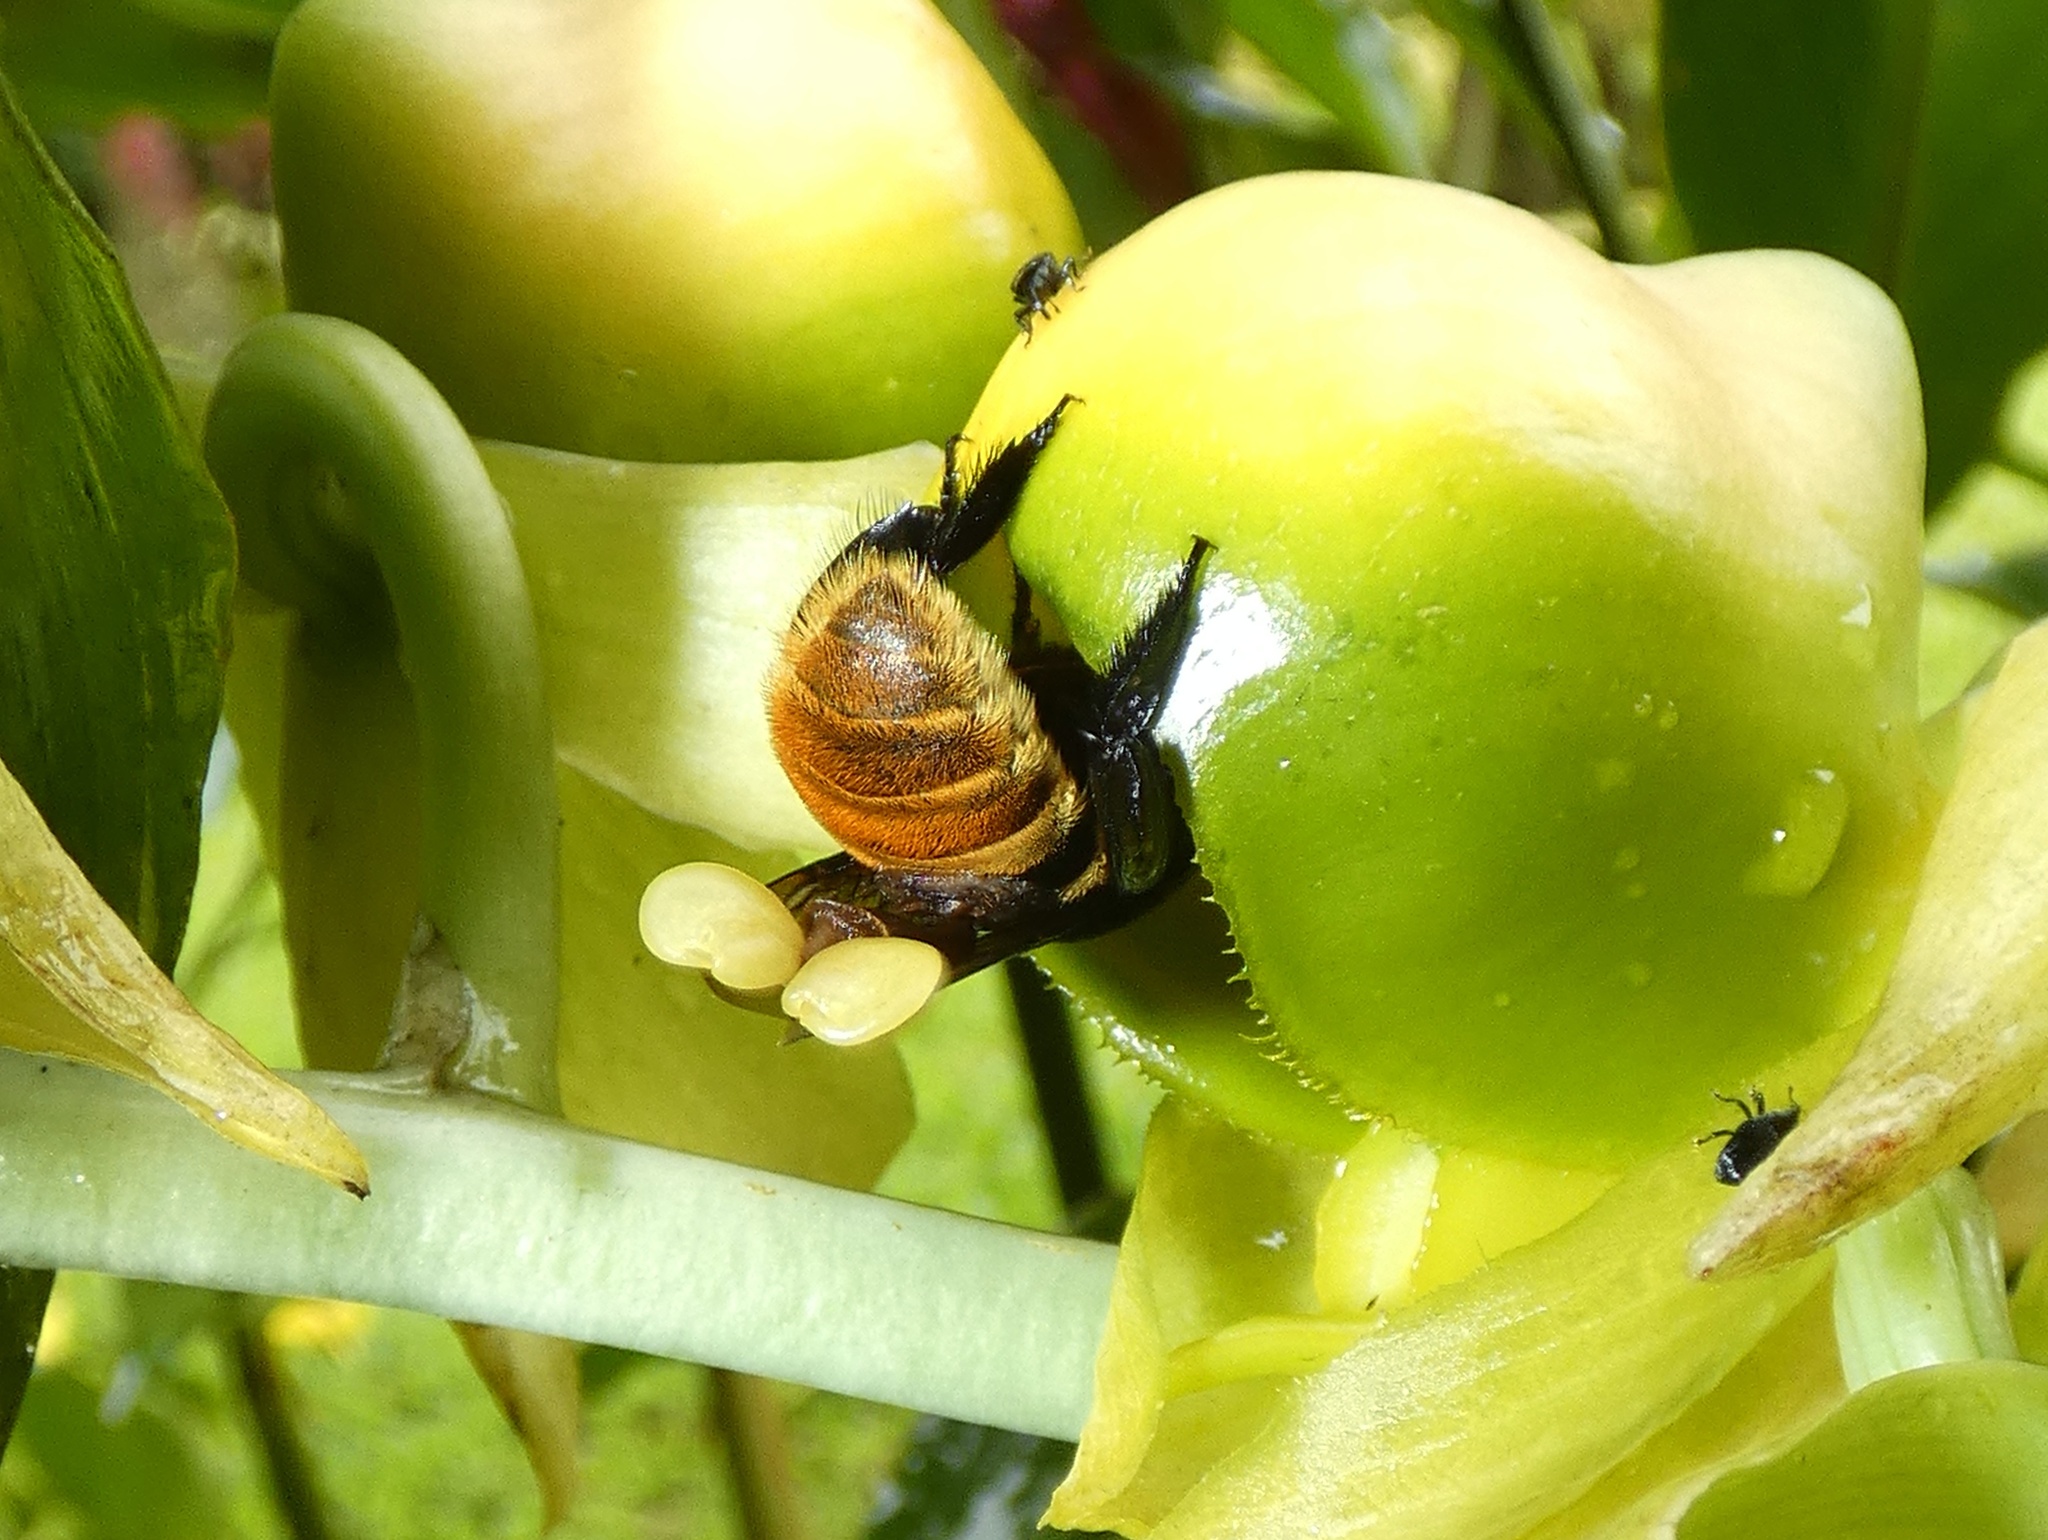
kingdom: Animalia
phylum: Arthropoda
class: Insecta
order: Hymenoptera
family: Apidae
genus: Eulaema
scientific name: Eulaema cingulata
